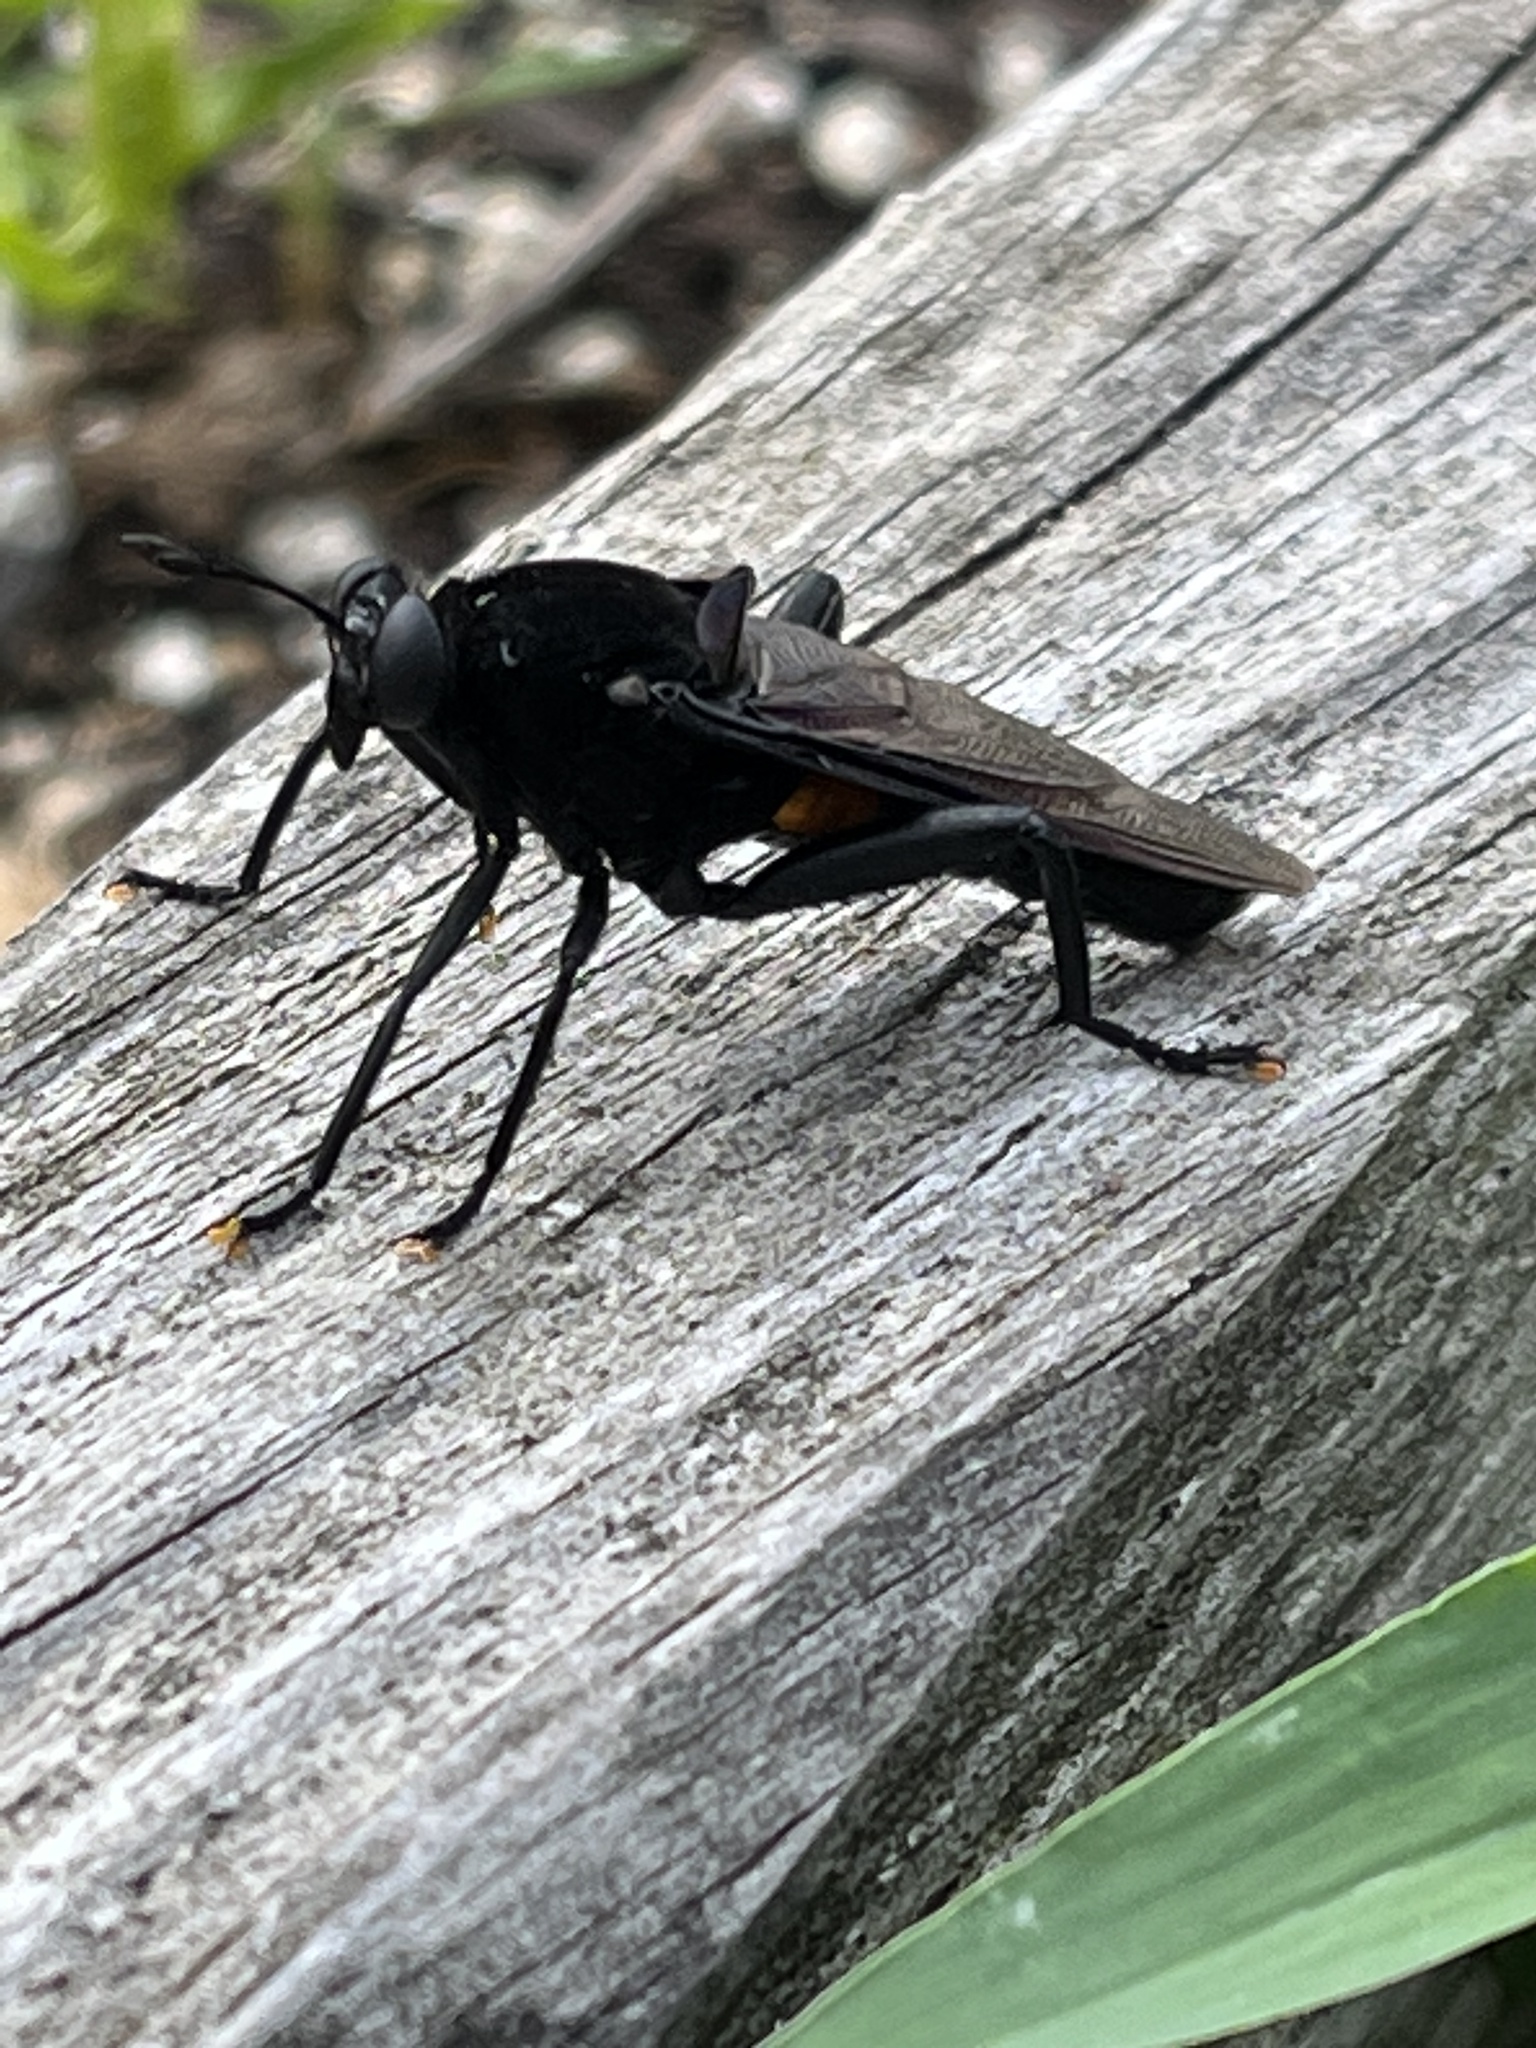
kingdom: Animalia
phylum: Arthropoda
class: Insecta
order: Diptera
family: Mydidae
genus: Mydas
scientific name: Mydas clavatus
